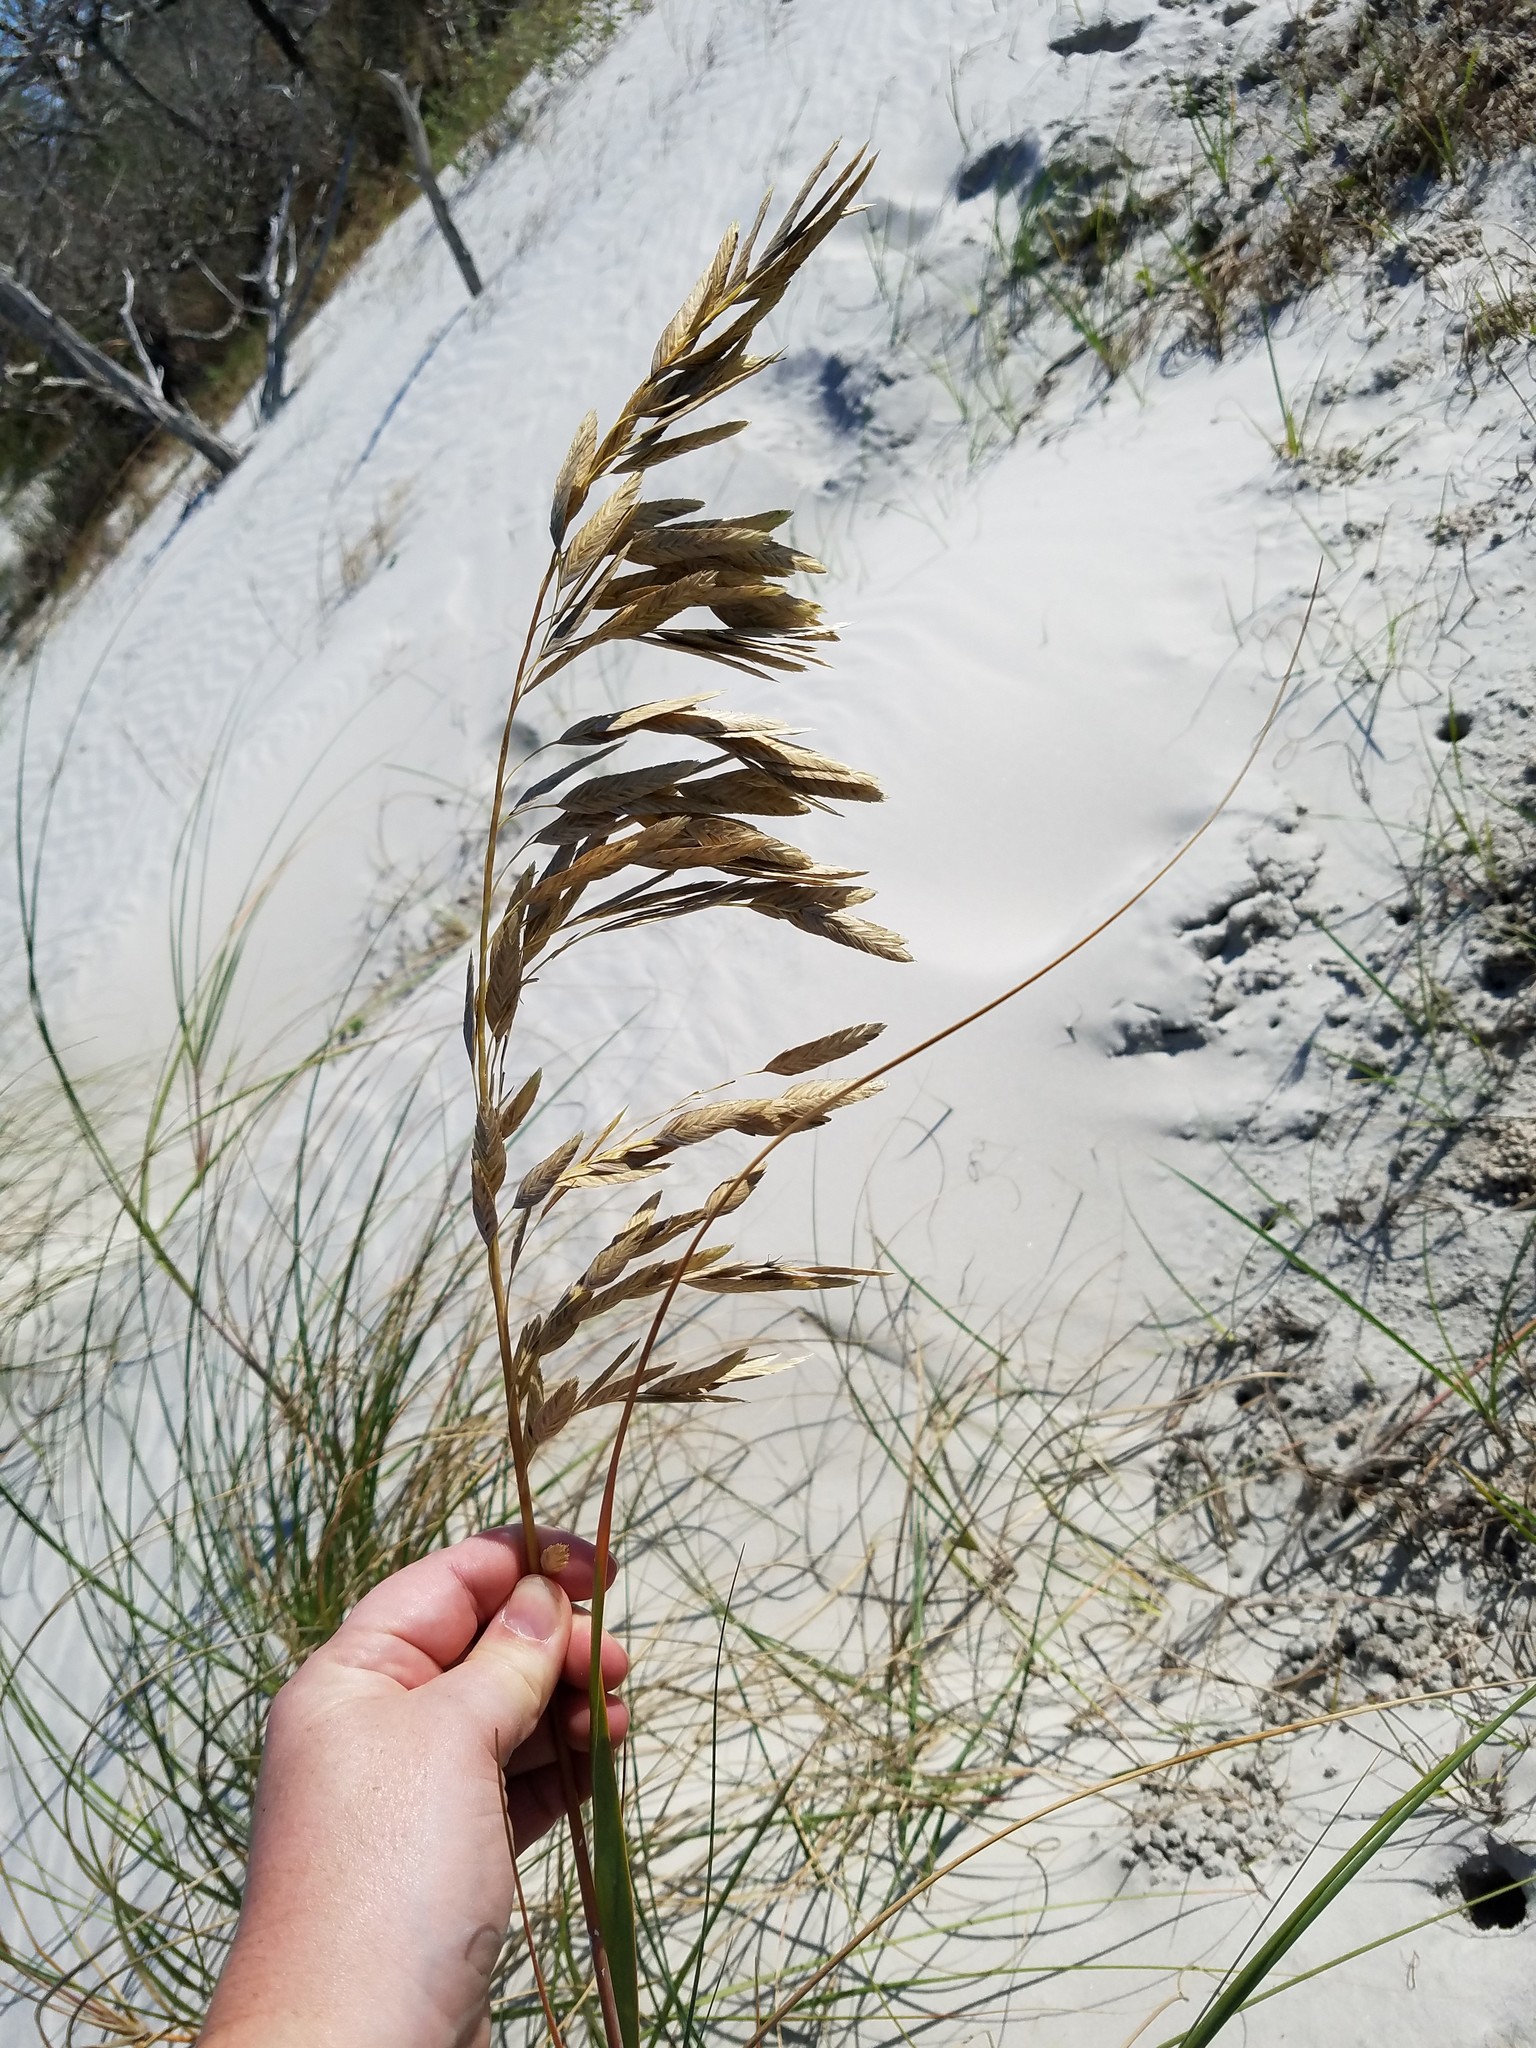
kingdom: Plantae
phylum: Tracheophyta
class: Liliopsida
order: Poales
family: Poaceae
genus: Uniola
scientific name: Uniola paniculata
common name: Seaside-oats
